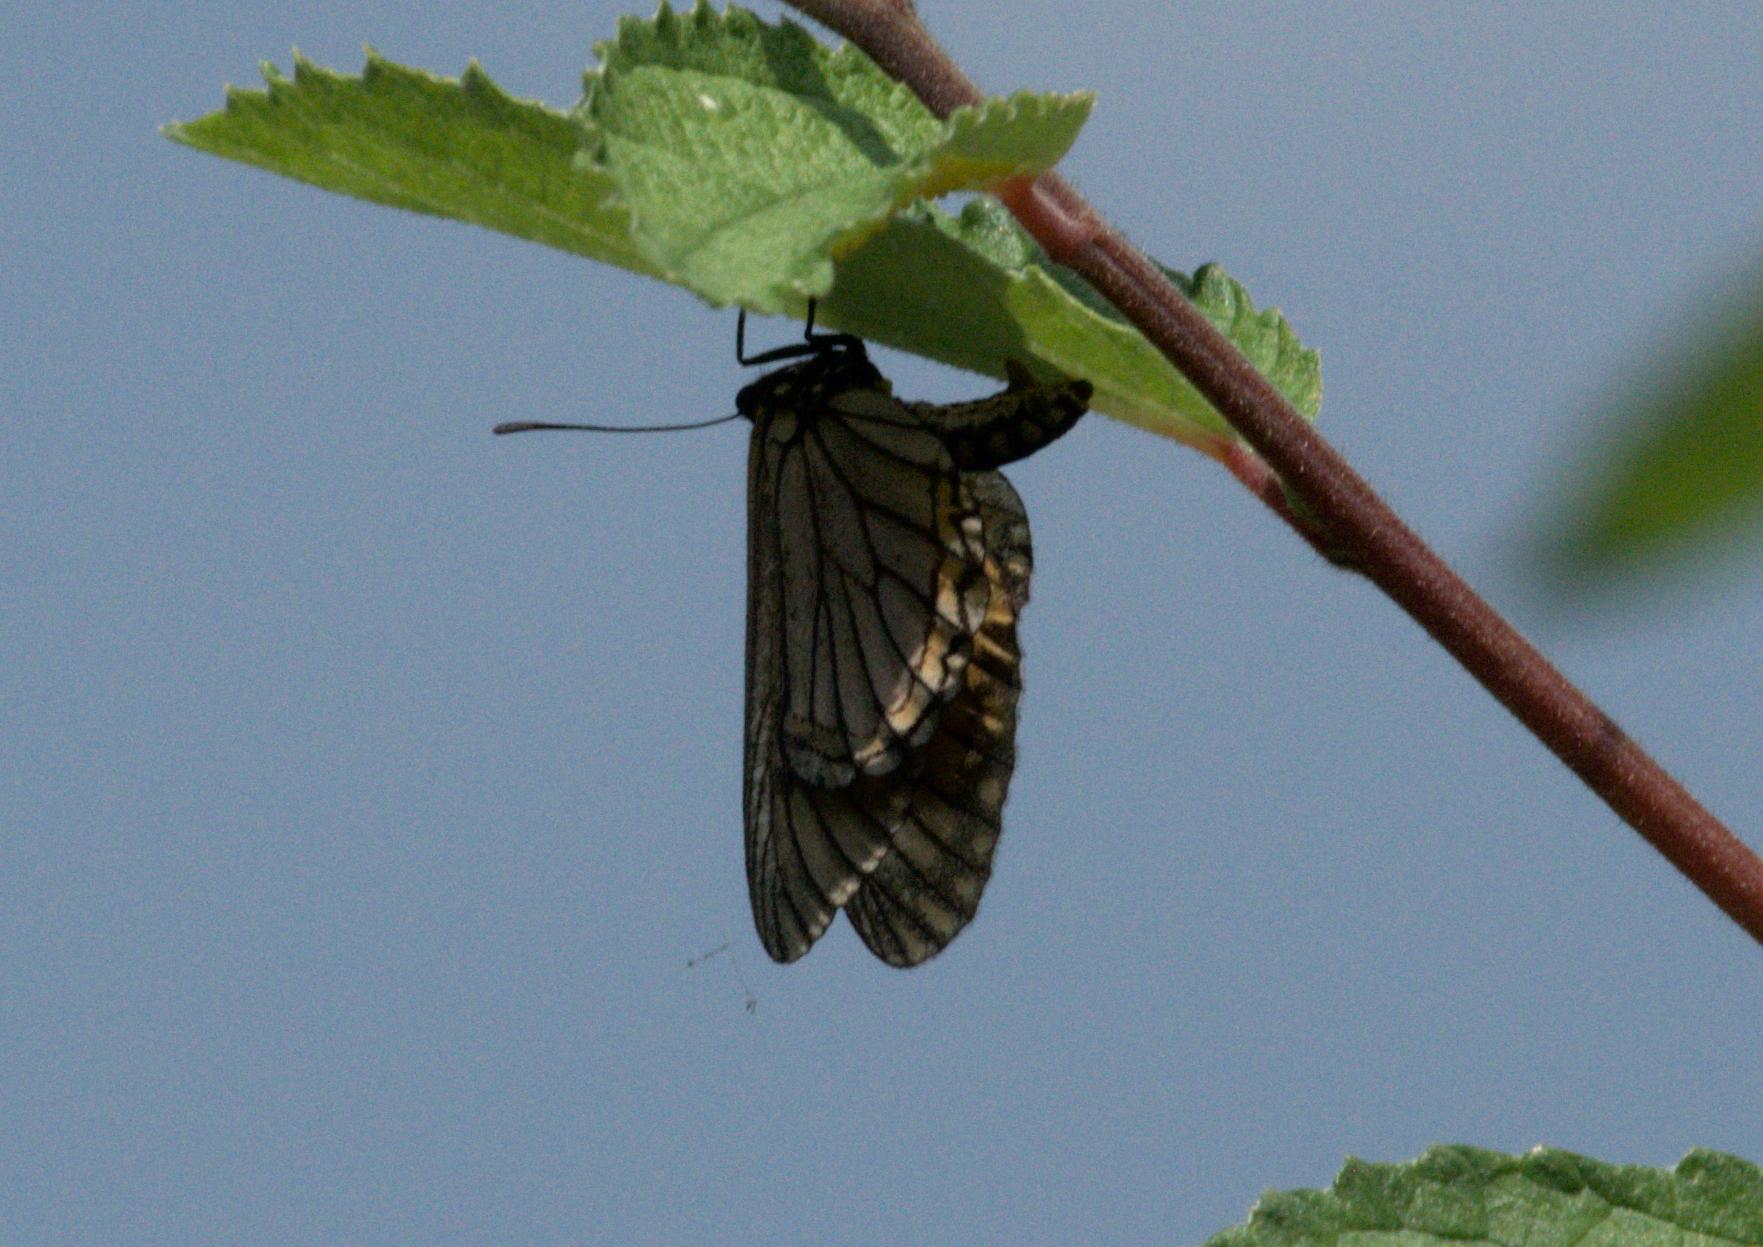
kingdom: Animalia
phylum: Arthropoda
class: Insecta
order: Lepidoptera
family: Nymphalidae
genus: Acraea
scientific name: Acraea Telchinia issoria
